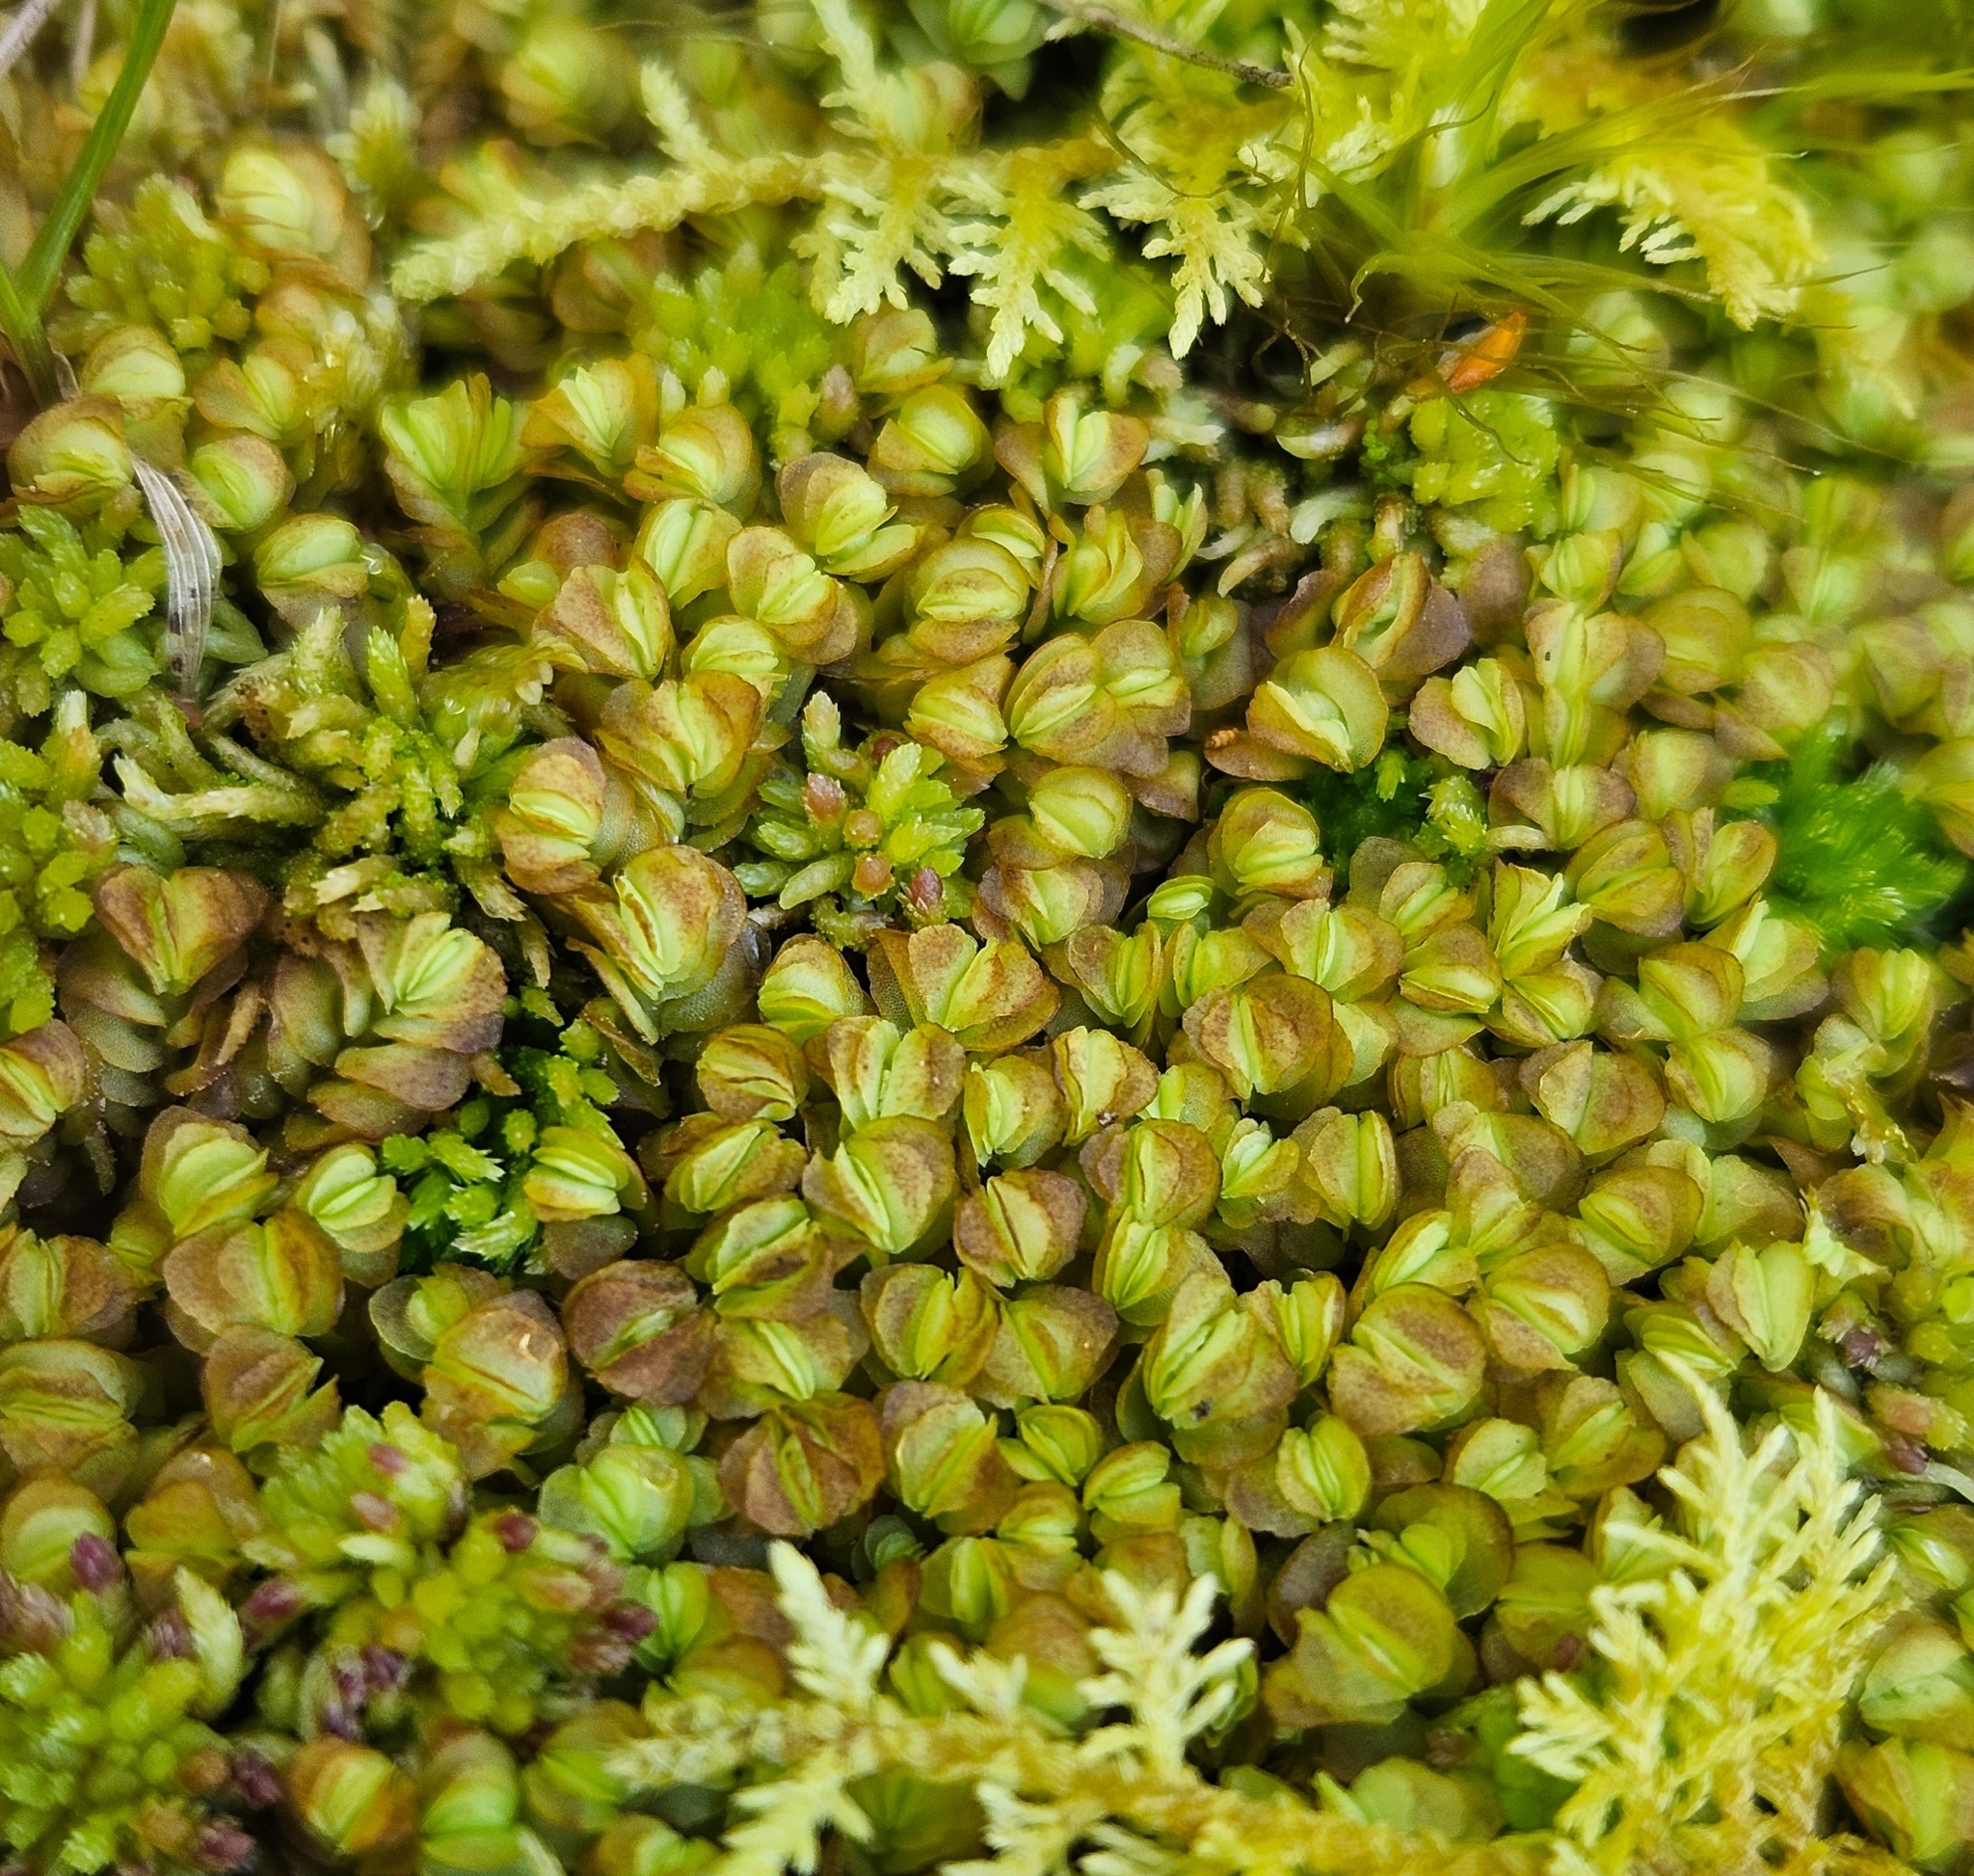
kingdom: Plantae
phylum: Marchantiophyta
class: Jungermanniopsida
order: Jungermanniales
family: Myliaceae
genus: Mylia
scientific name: Mylia taylorii
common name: Taylor s flapwort
